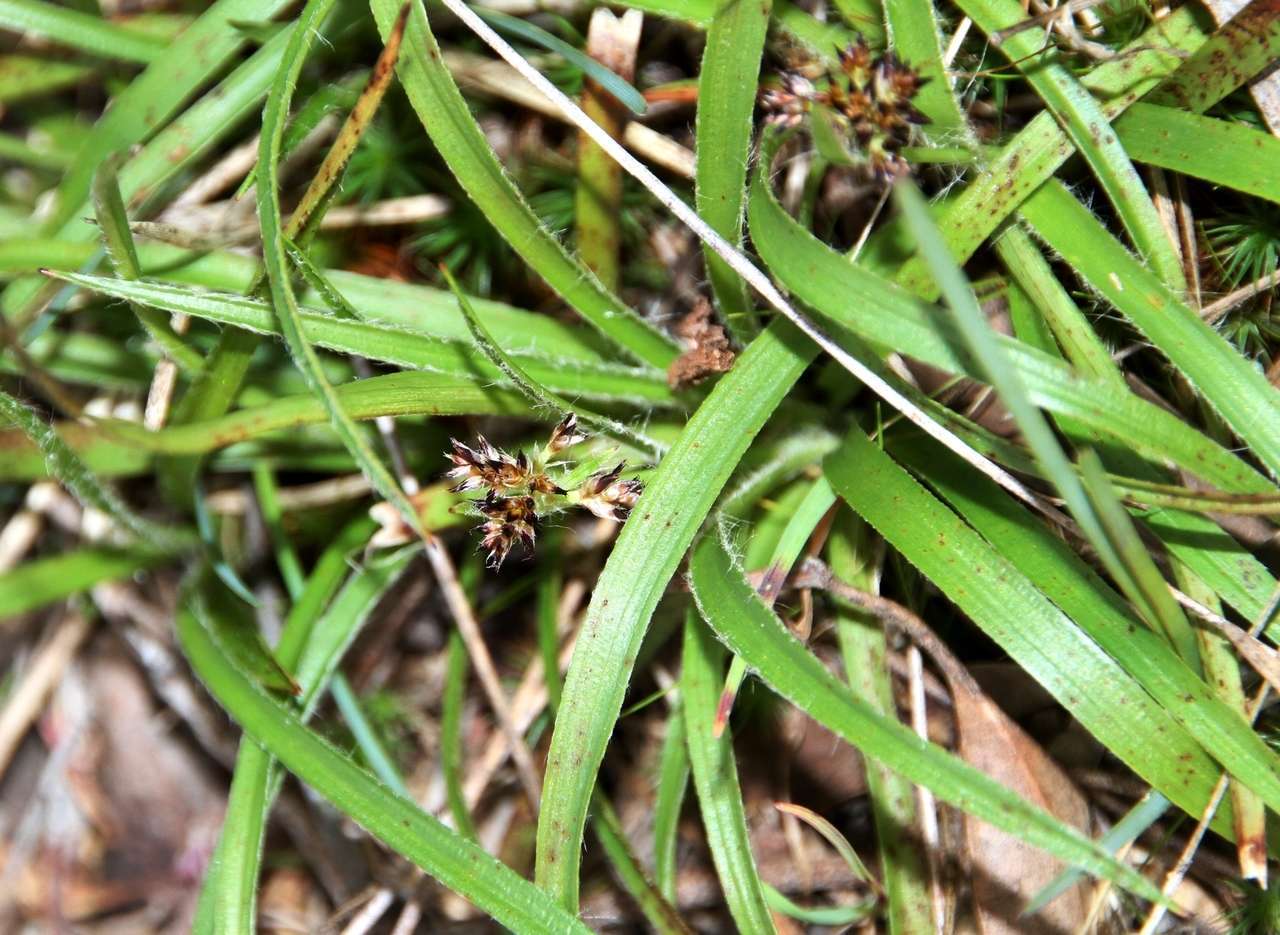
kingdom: Plantae
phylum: Tracheophyta
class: Liliopsida
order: Poales
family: Juncaceae
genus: Luzula
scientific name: Luzula meridionalis
